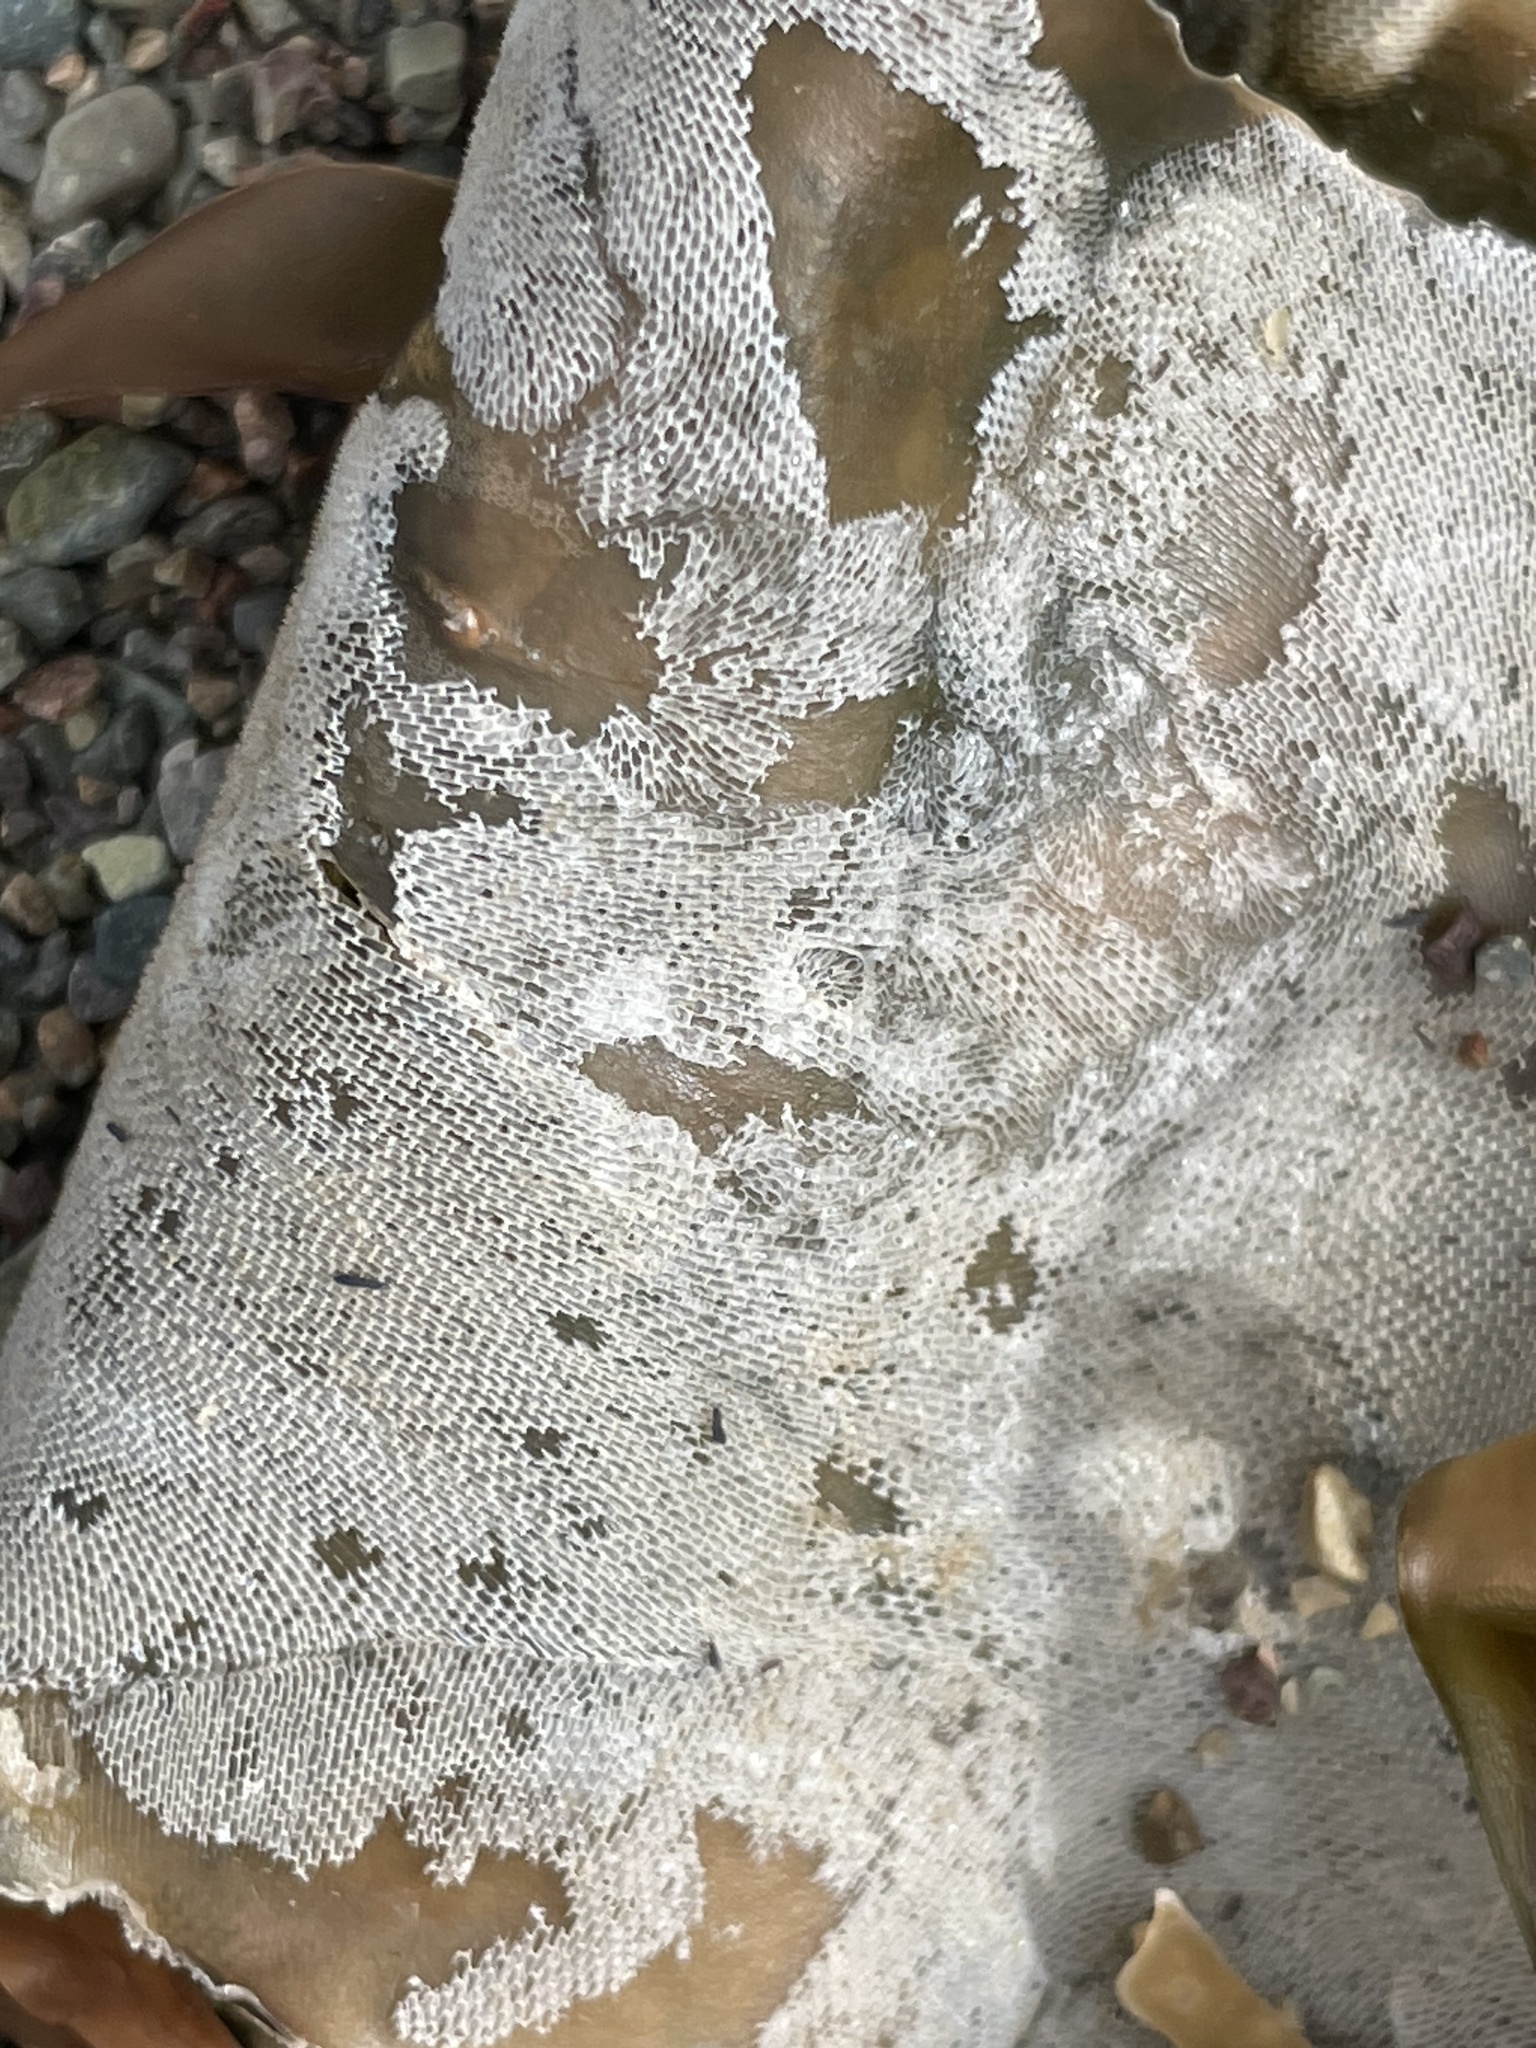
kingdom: Animalia
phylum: Bryozoa
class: Gymnolaemata
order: Cheilostomatida
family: Membraniporidae
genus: Membranipora
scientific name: Membranipora membranacea
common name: Sea mat
